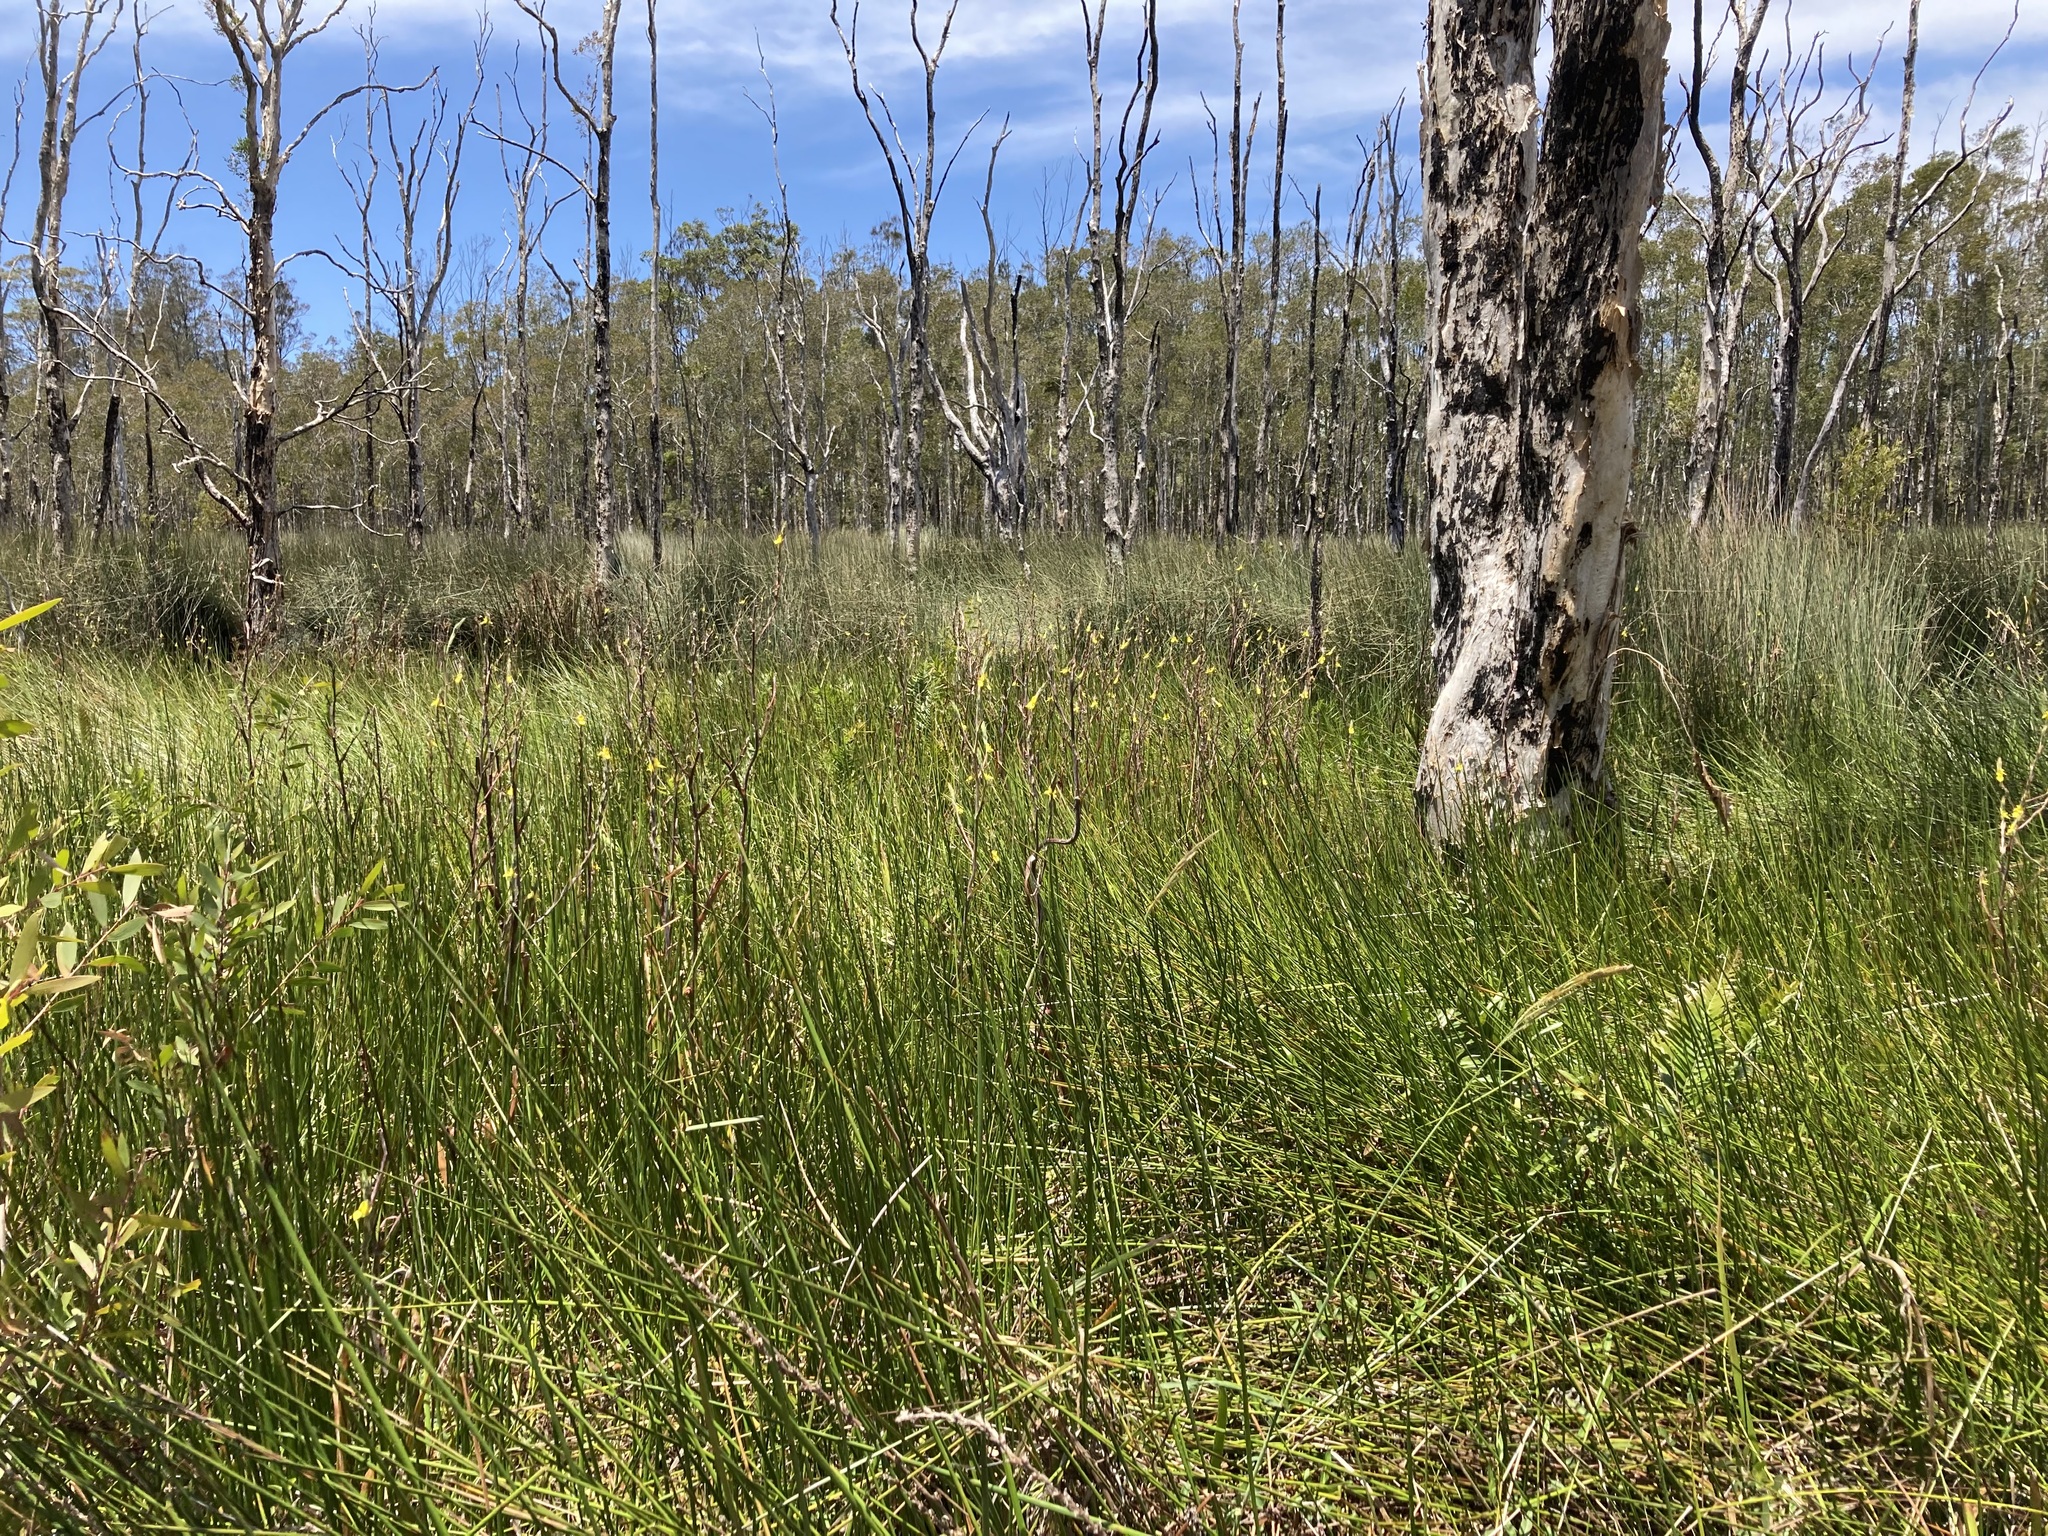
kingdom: Plantae
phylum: Tracheophyta
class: Liliopsida
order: Commelinales
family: Philydraceae
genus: Philydrum
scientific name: Philydrum lanuginosum
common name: Woolly frog's mouth
